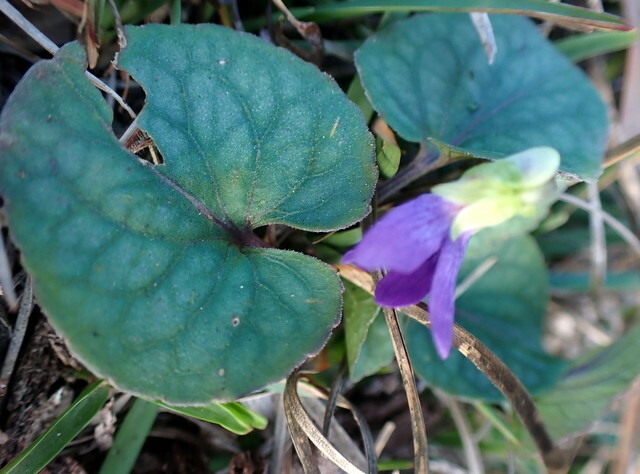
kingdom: Plantae
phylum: Tracheophyta
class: Magnoliopsida
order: Malpighiales
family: Violaceae
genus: Viola
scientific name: Viola walteri
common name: Prostrate southern violet
